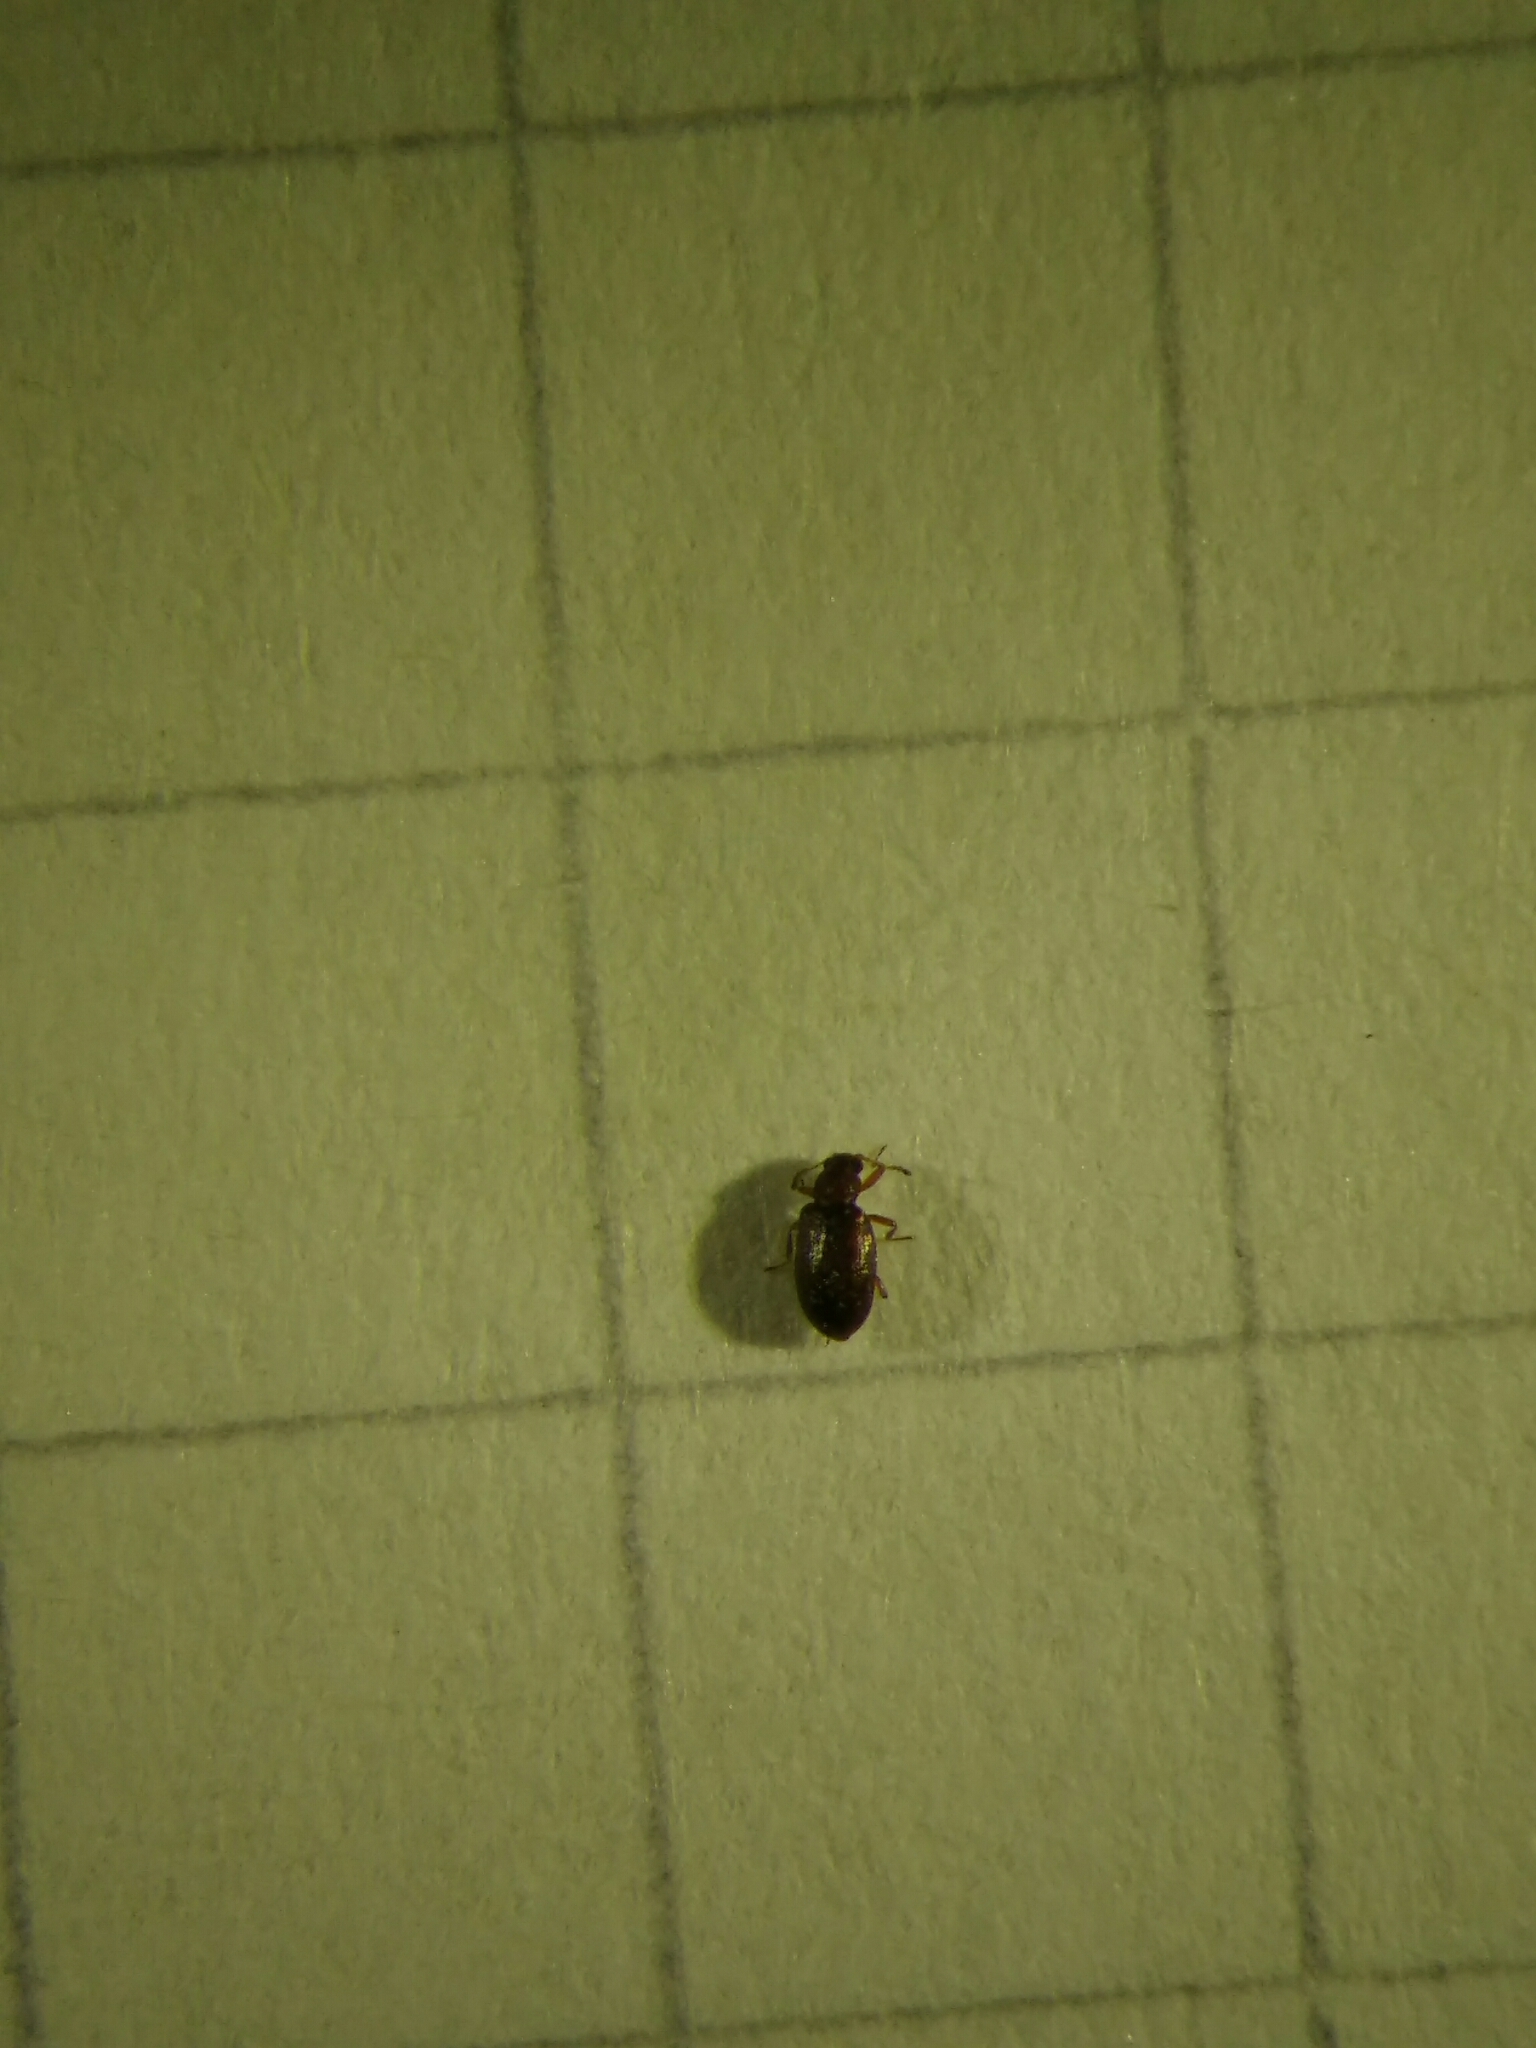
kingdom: Animalia
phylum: Arthropoda
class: Insecta
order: Coleoptera
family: Latridiidae
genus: Cortinicara
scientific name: Cortinicara gibbosa
